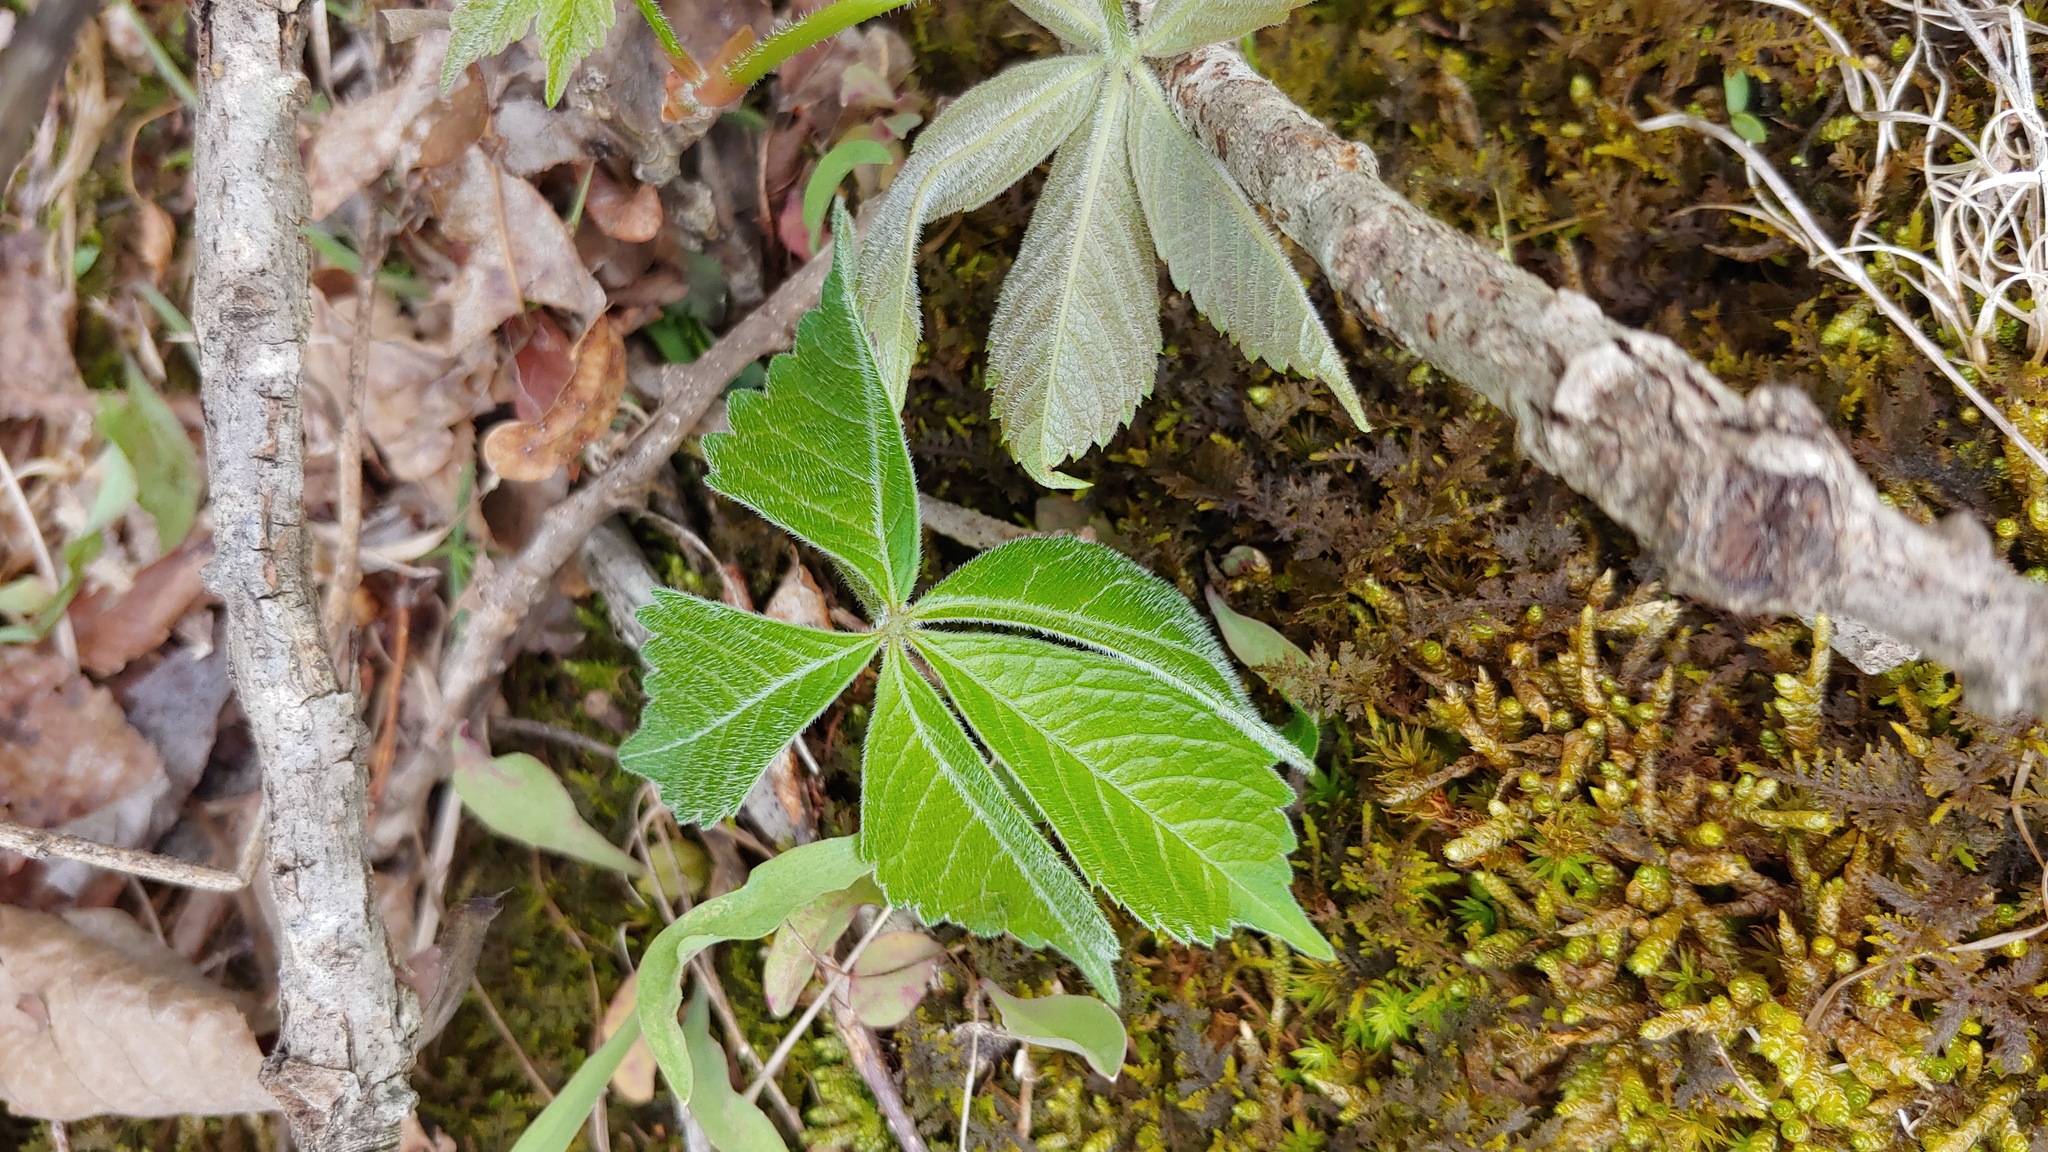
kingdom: Plantae
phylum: Tracheophyta
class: Magnoliopsida
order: Vitales
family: Vitaceae
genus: Parthenocissus
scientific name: Parthenocissus quinquefolia
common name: Virginia-creeper
